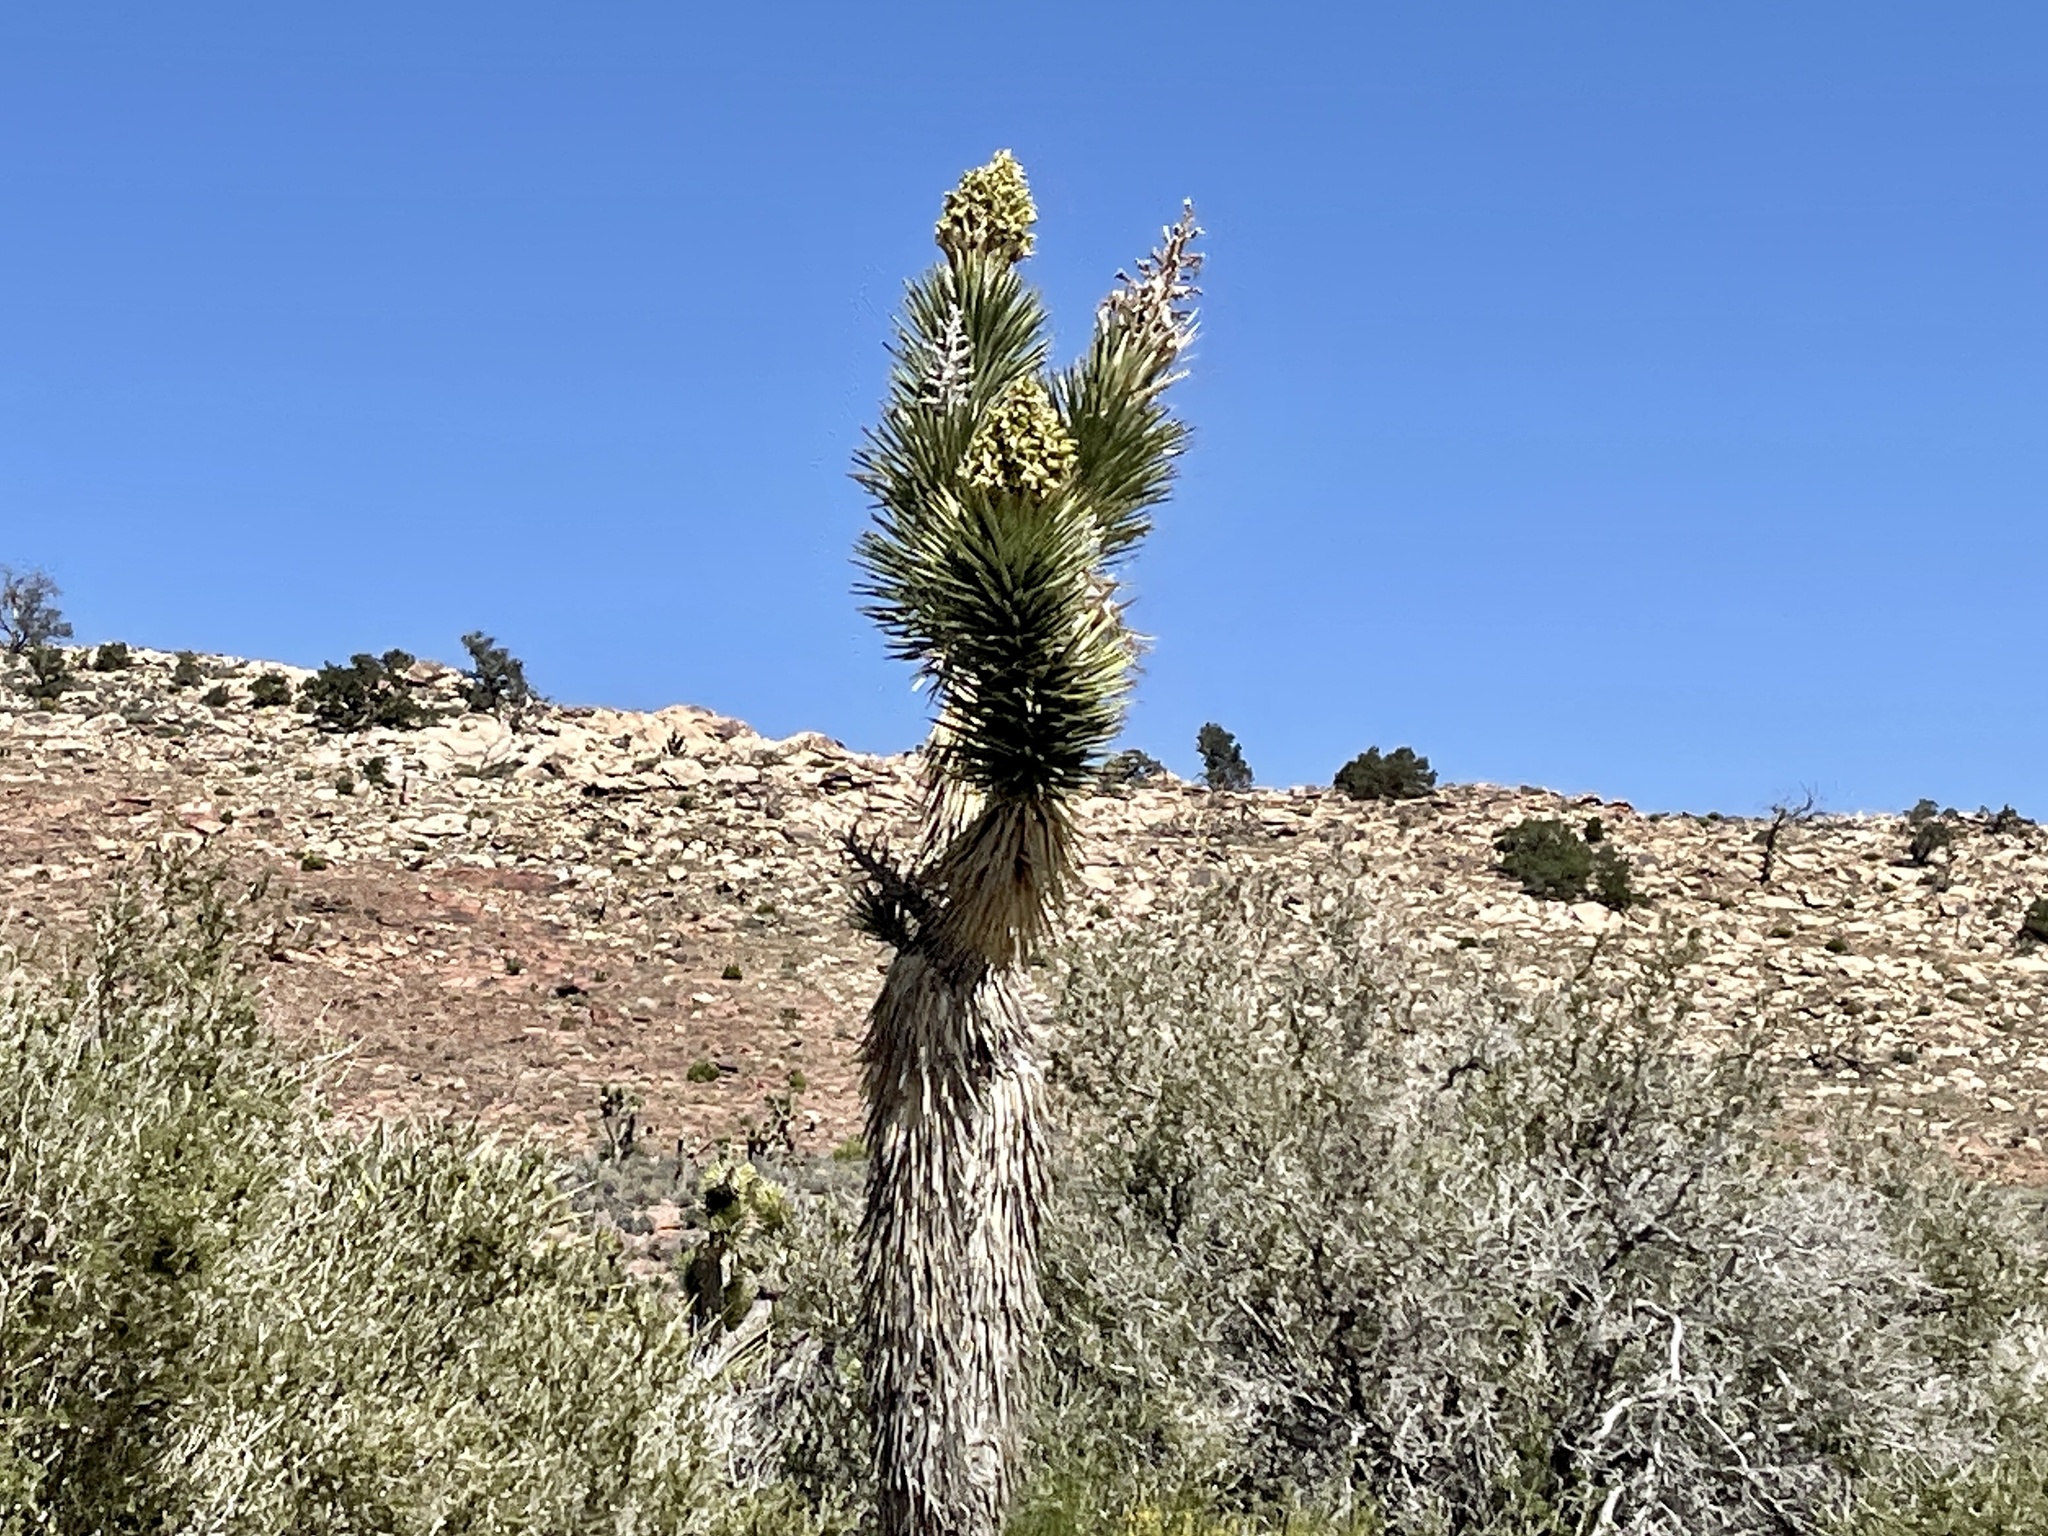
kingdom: Plantae
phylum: Tracheophyta
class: Liliopsida
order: Asparagales
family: Asparagaceae
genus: Yucca
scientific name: Yucca brevifolia
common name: Joshua tree
